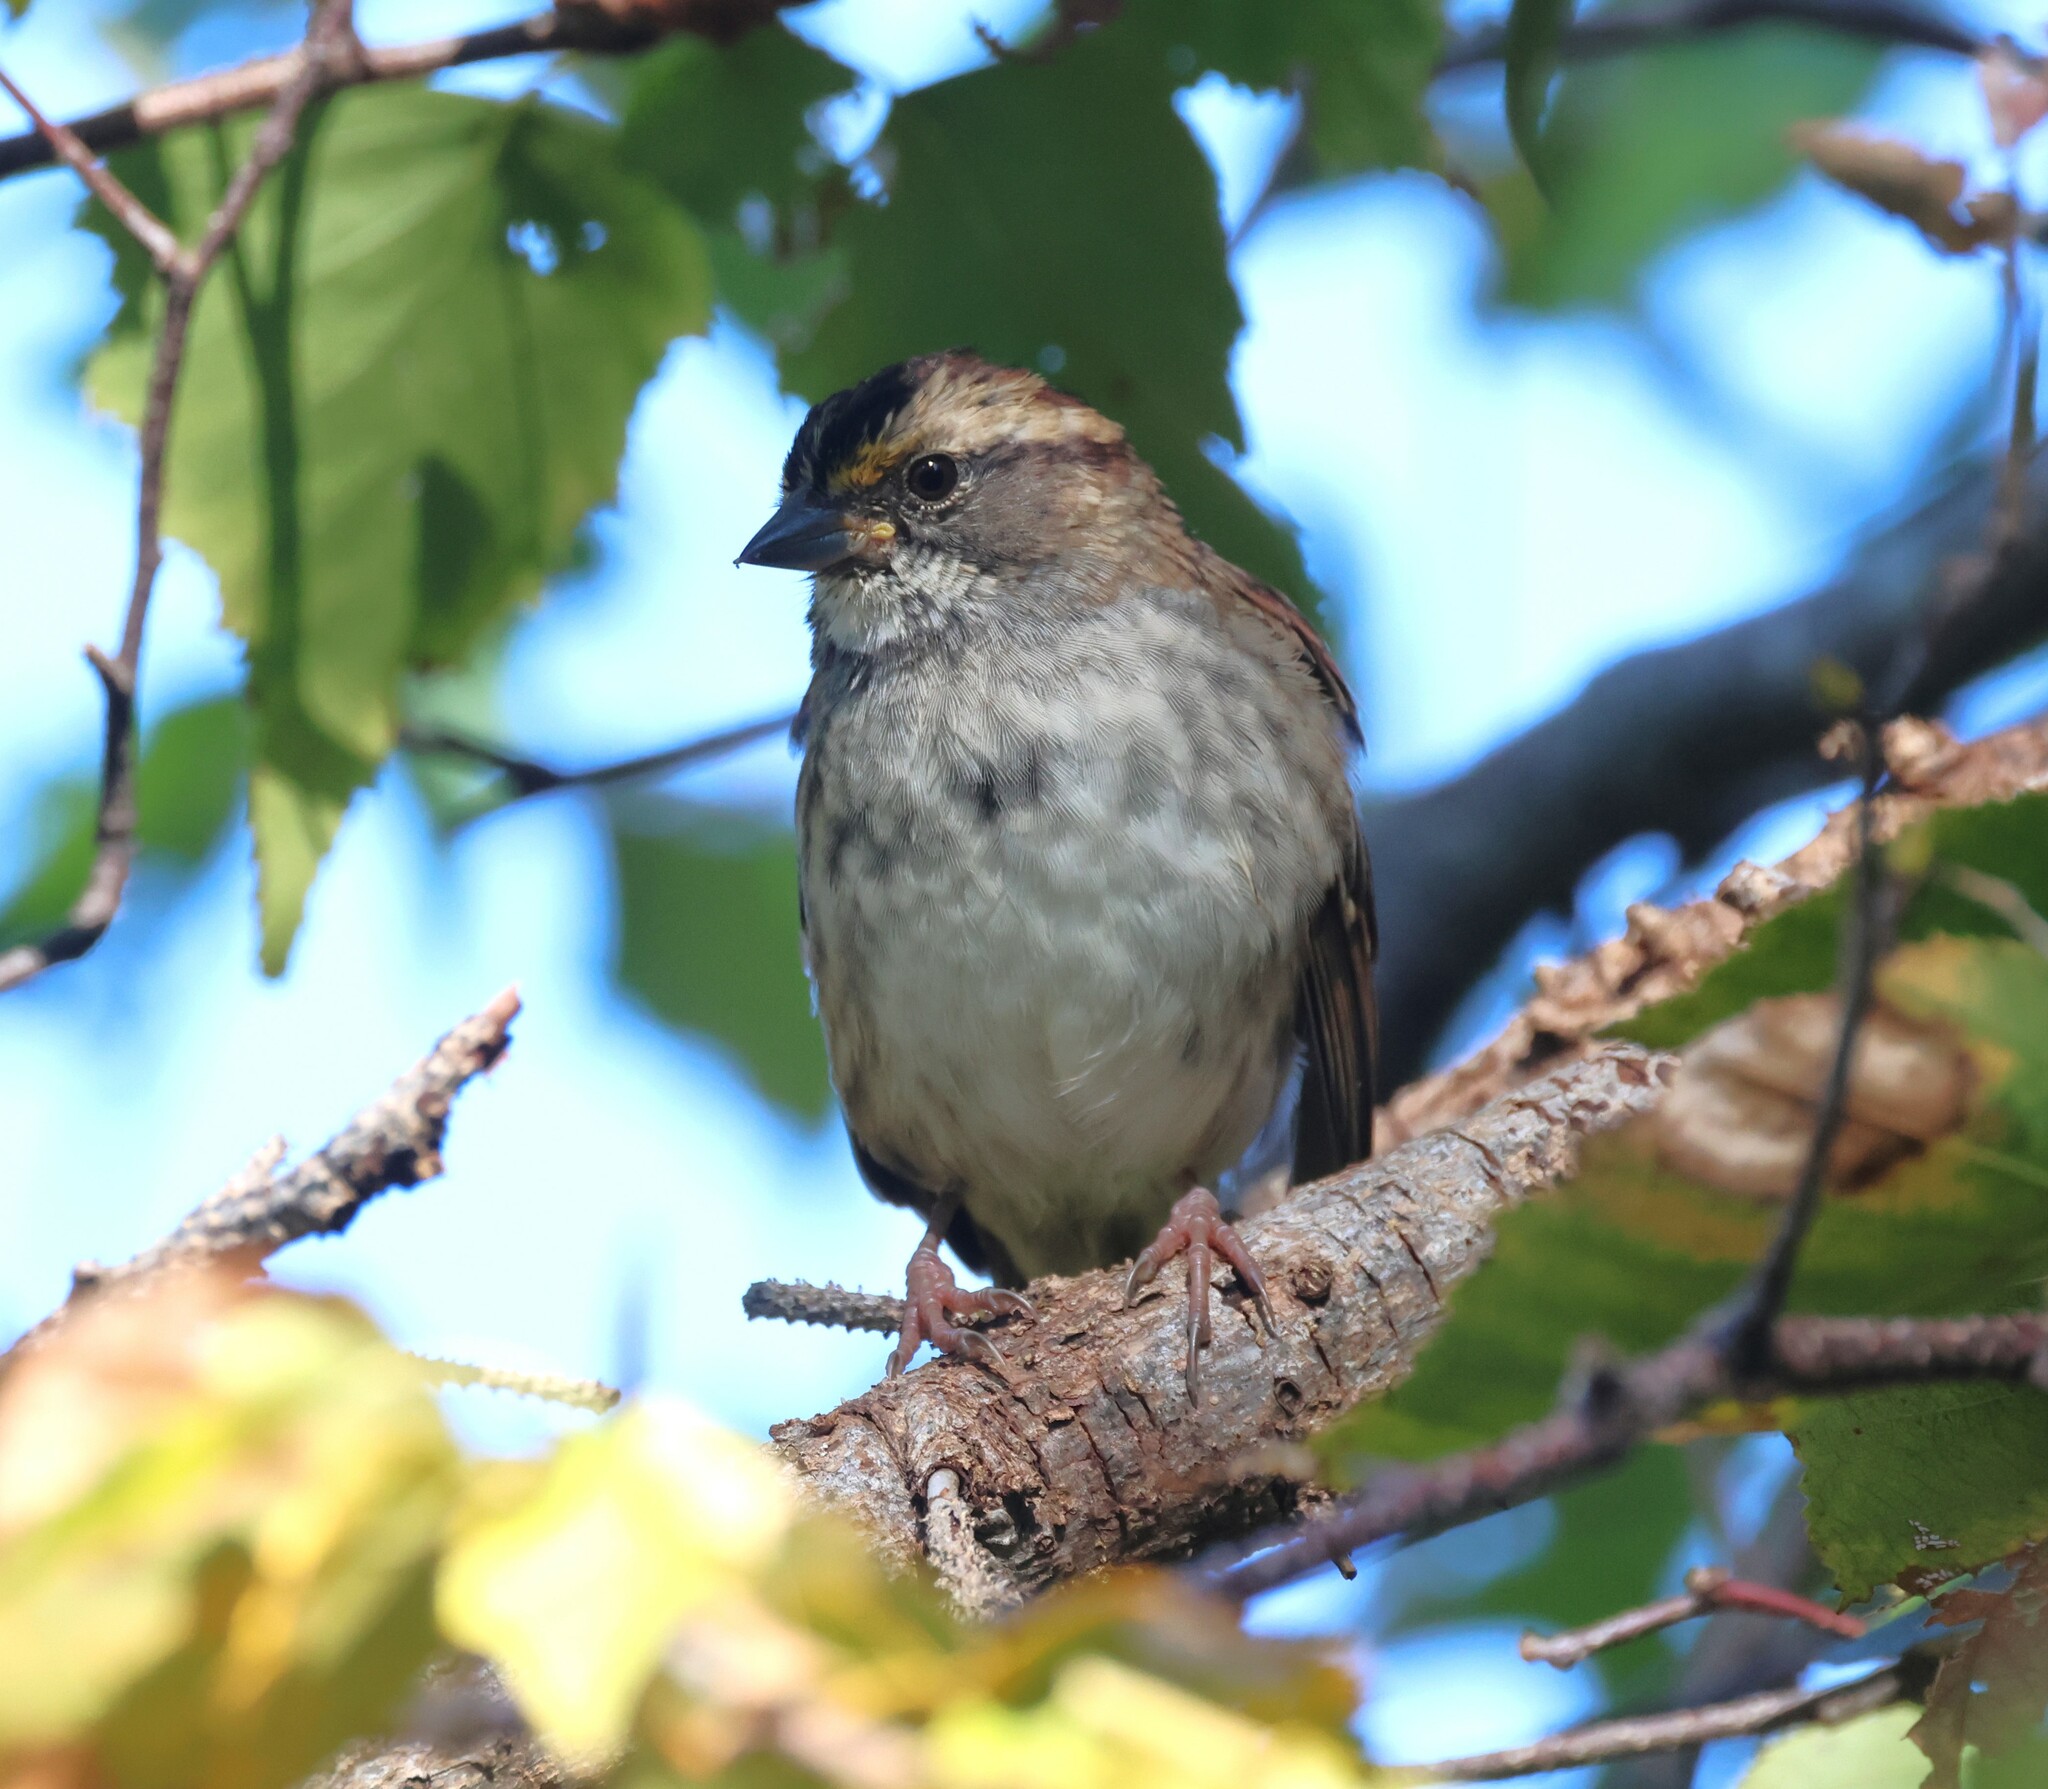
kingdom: Animalia
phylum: Chordata
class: Aves
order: Passeriformes
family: Passerellidae
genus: Zonotrichia
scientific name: Zonotrichia albicollis
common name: White-throated sparrow
